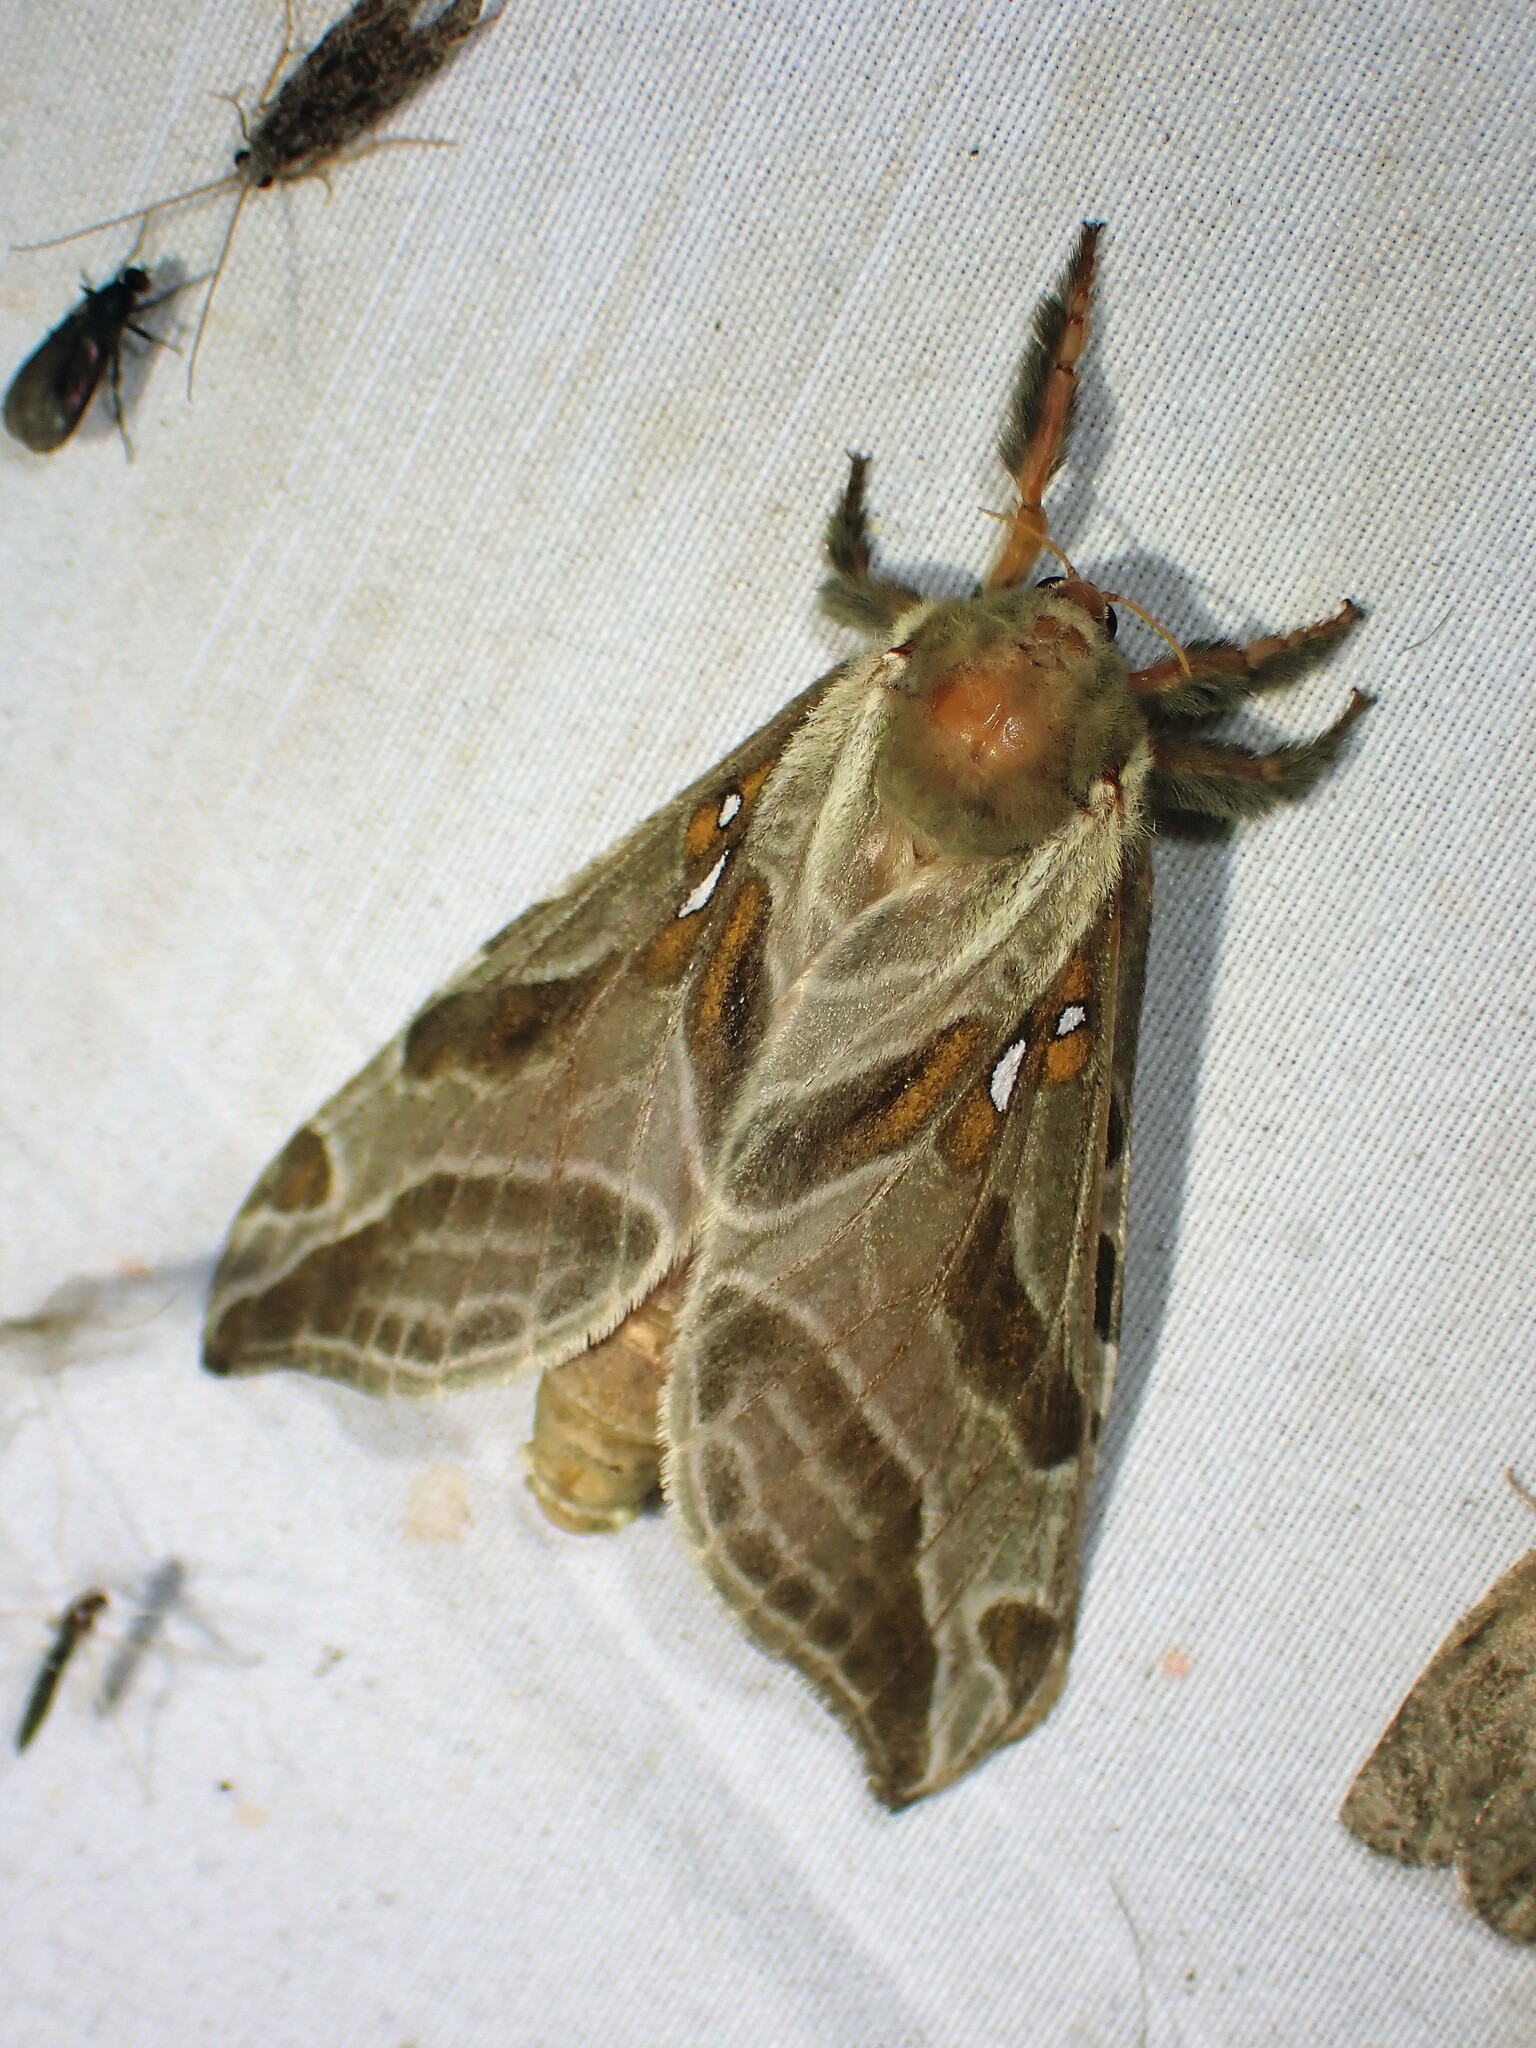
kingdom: Animalia
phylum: Arthropoda
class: Insecta
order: Lepidoptera
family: Hepialidae
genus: Sthenopis
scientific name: Sthenopis argenteomaculatus
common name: Silver-spotted ghost moth
